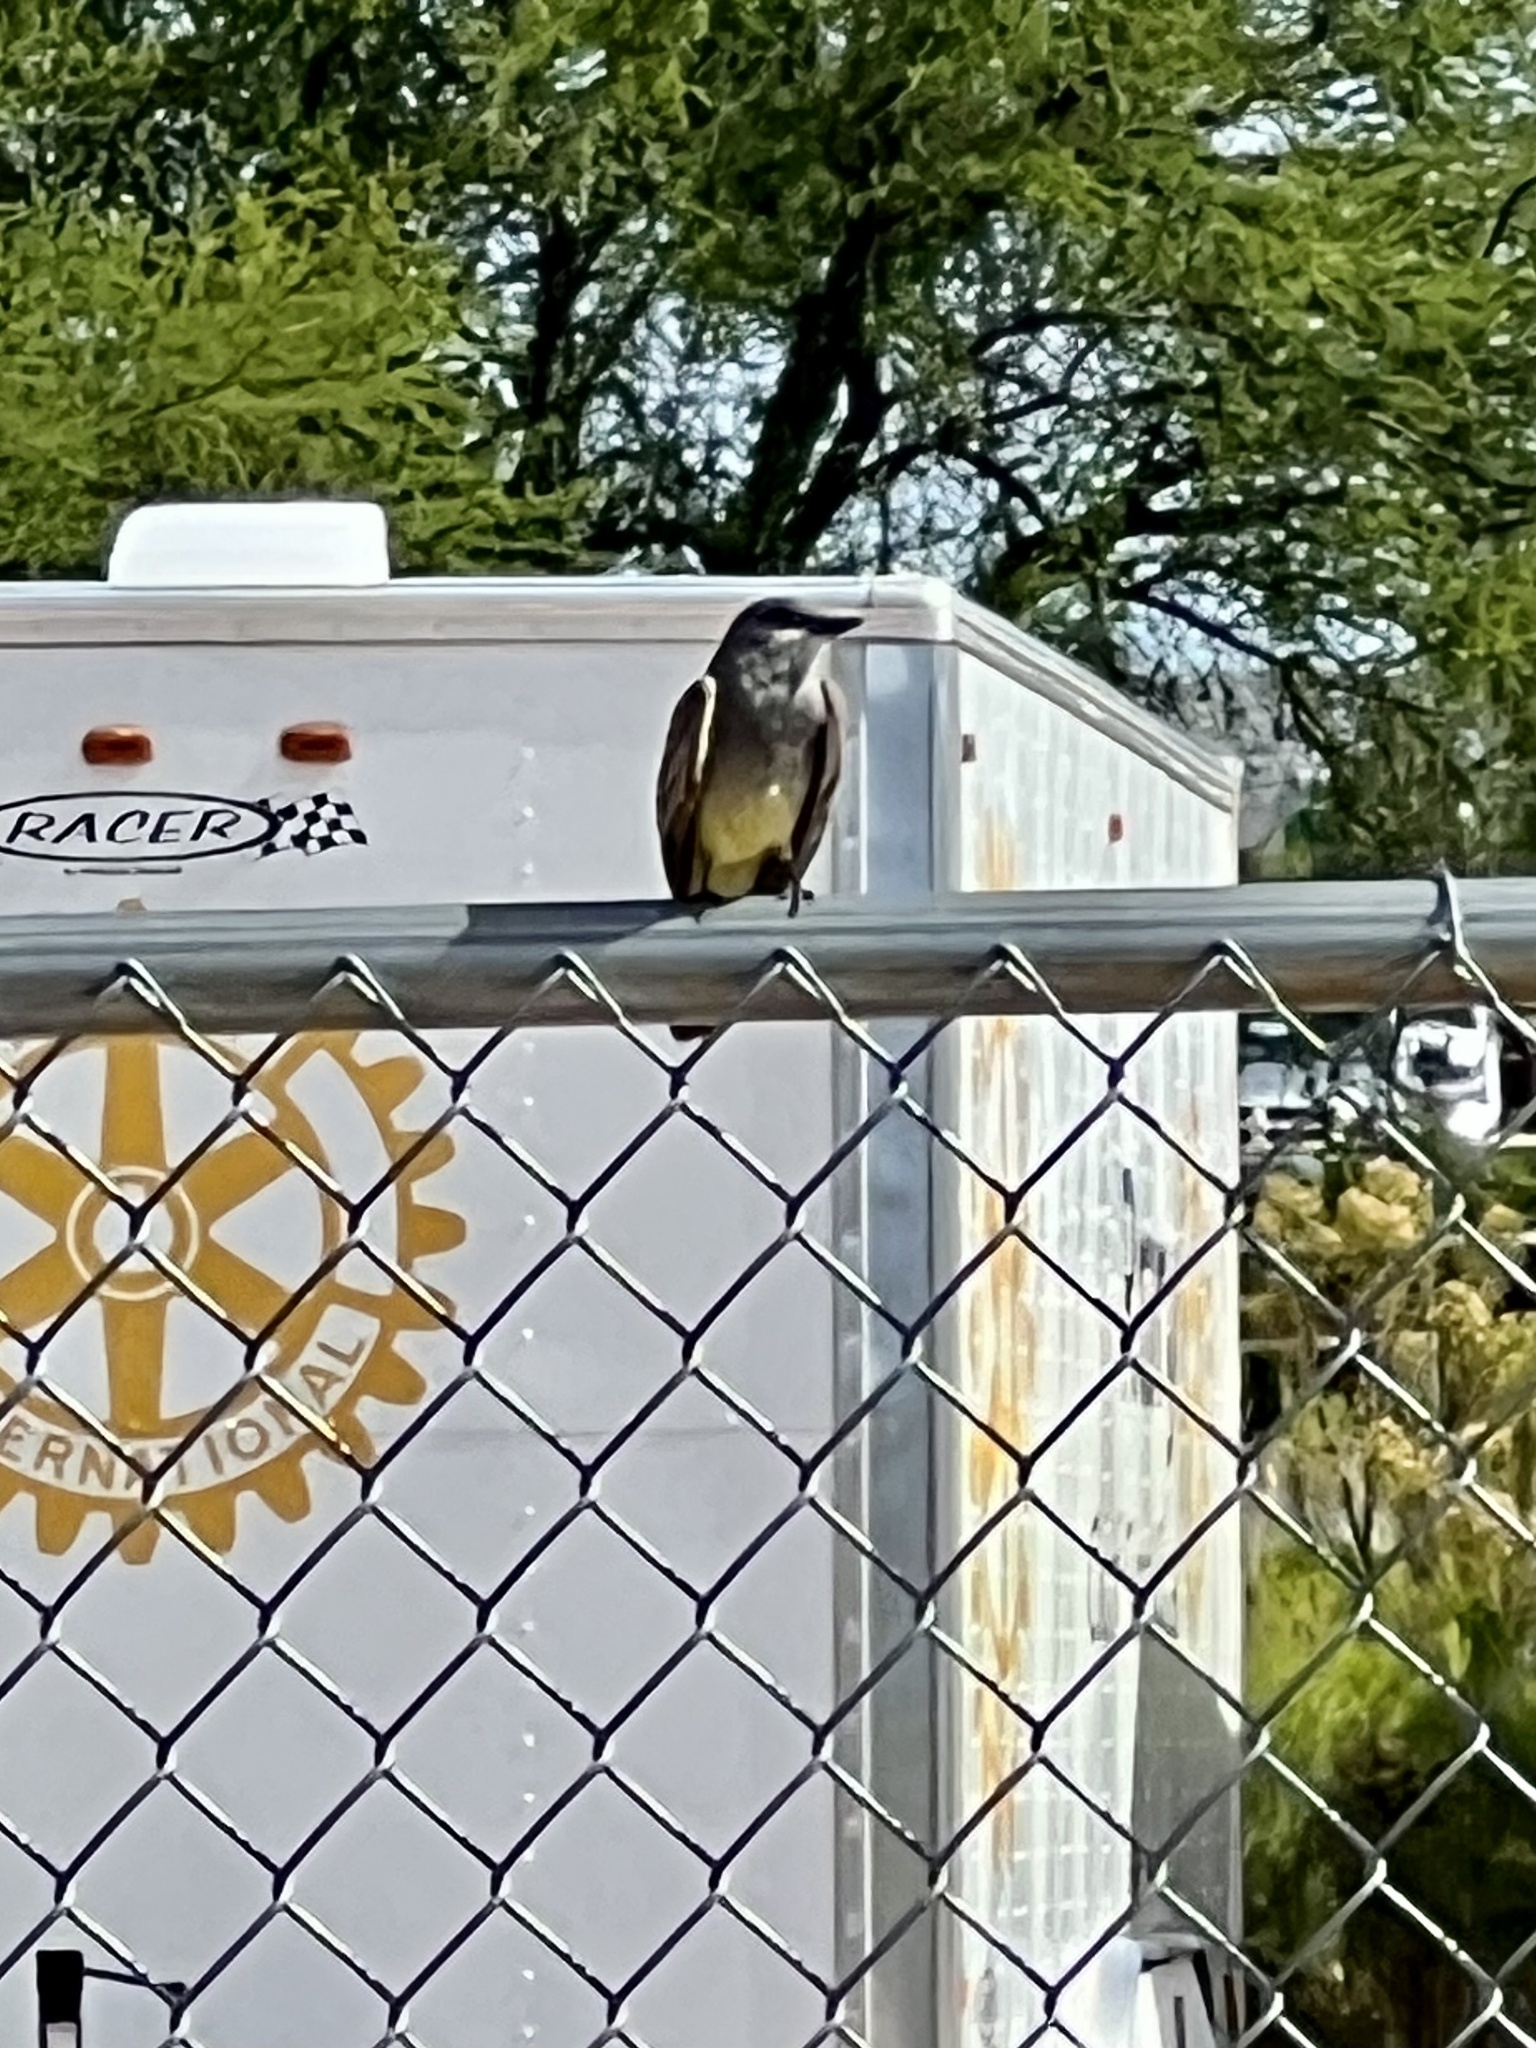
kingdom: Animalia
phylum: Chordata
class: Aves
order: Passeriformes
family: Tyrannidae
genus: Tyrannus
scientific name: Tyrannus verticalis
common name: Western kingbird
